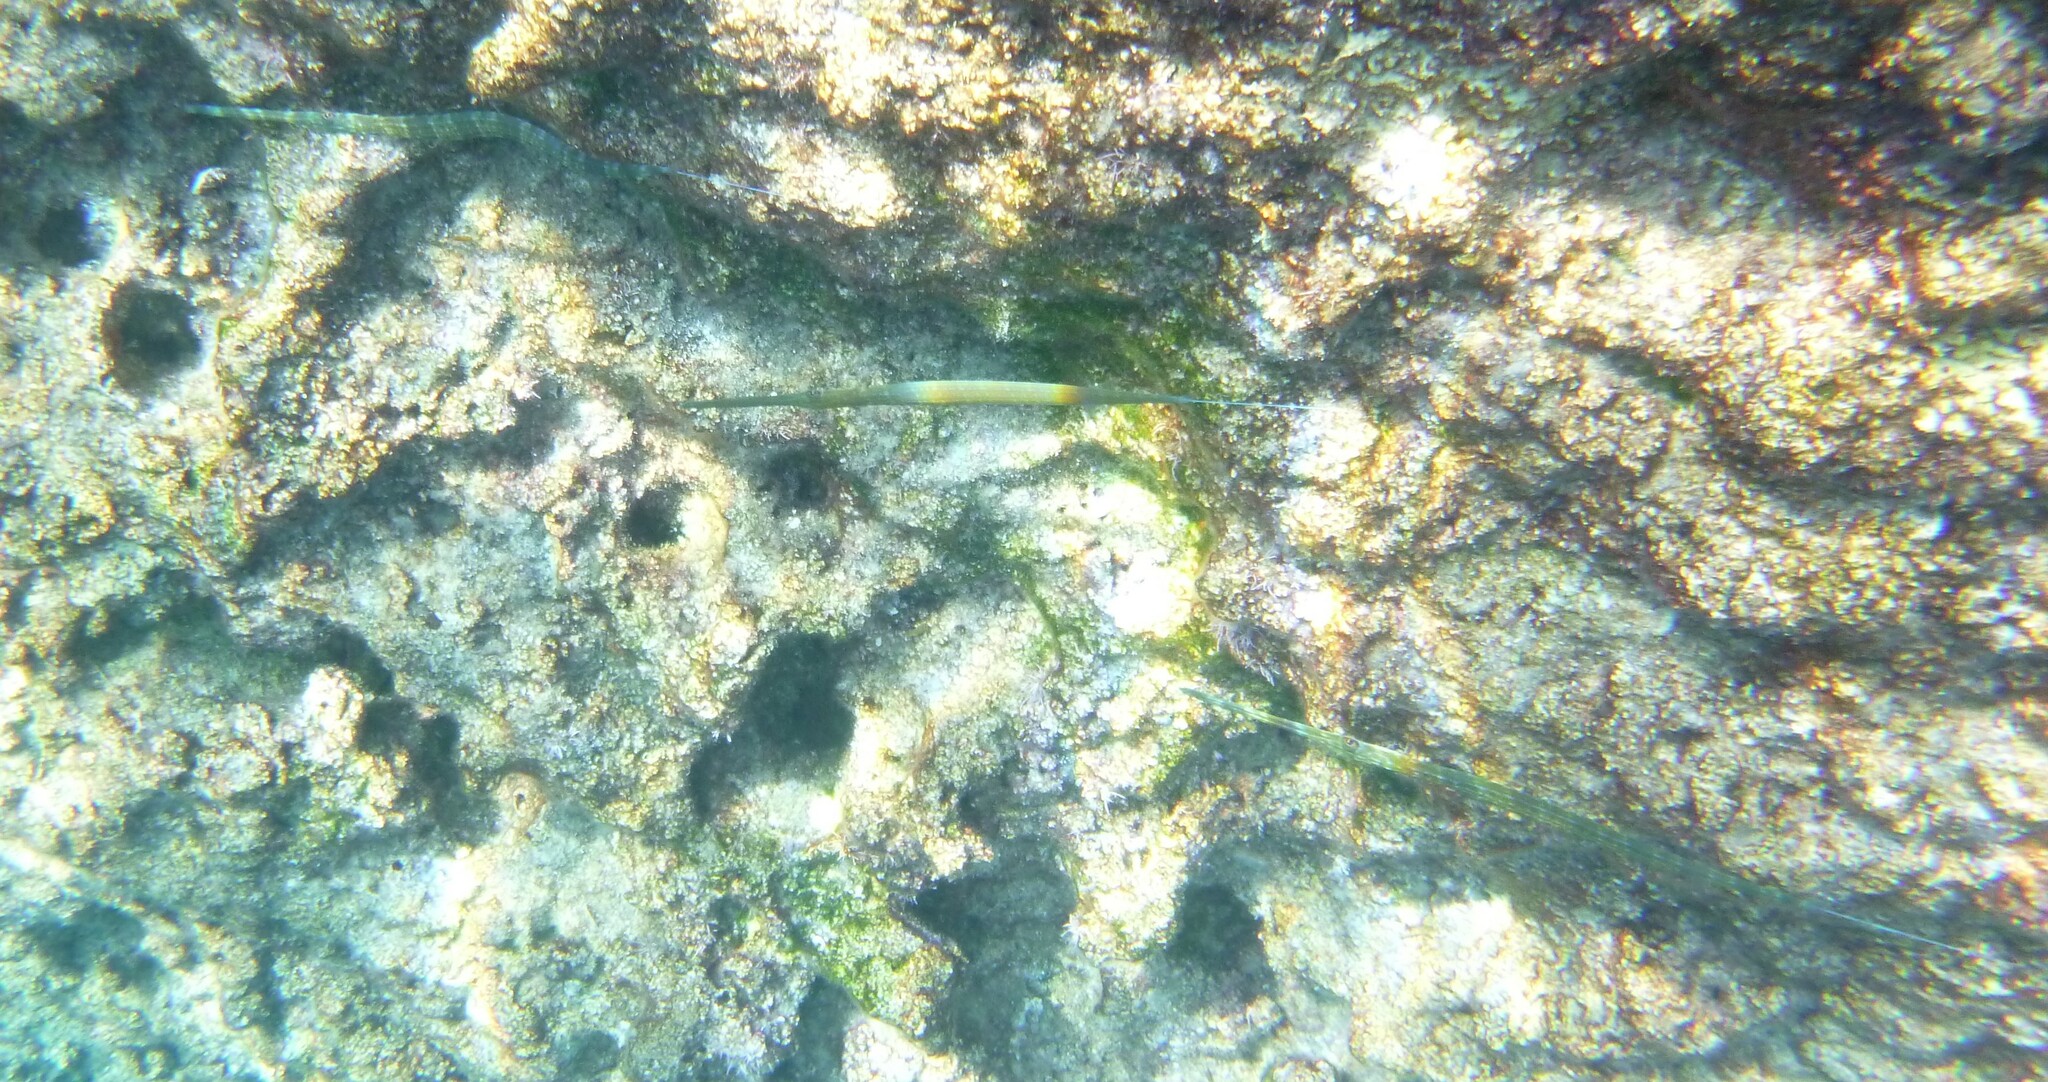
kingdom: Animalia
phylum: Chordata
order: Syngnathiformes
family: Fistulariidae
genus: Fistularia
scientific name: Fistularia commersonii
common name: Bluespotted cornetfish
